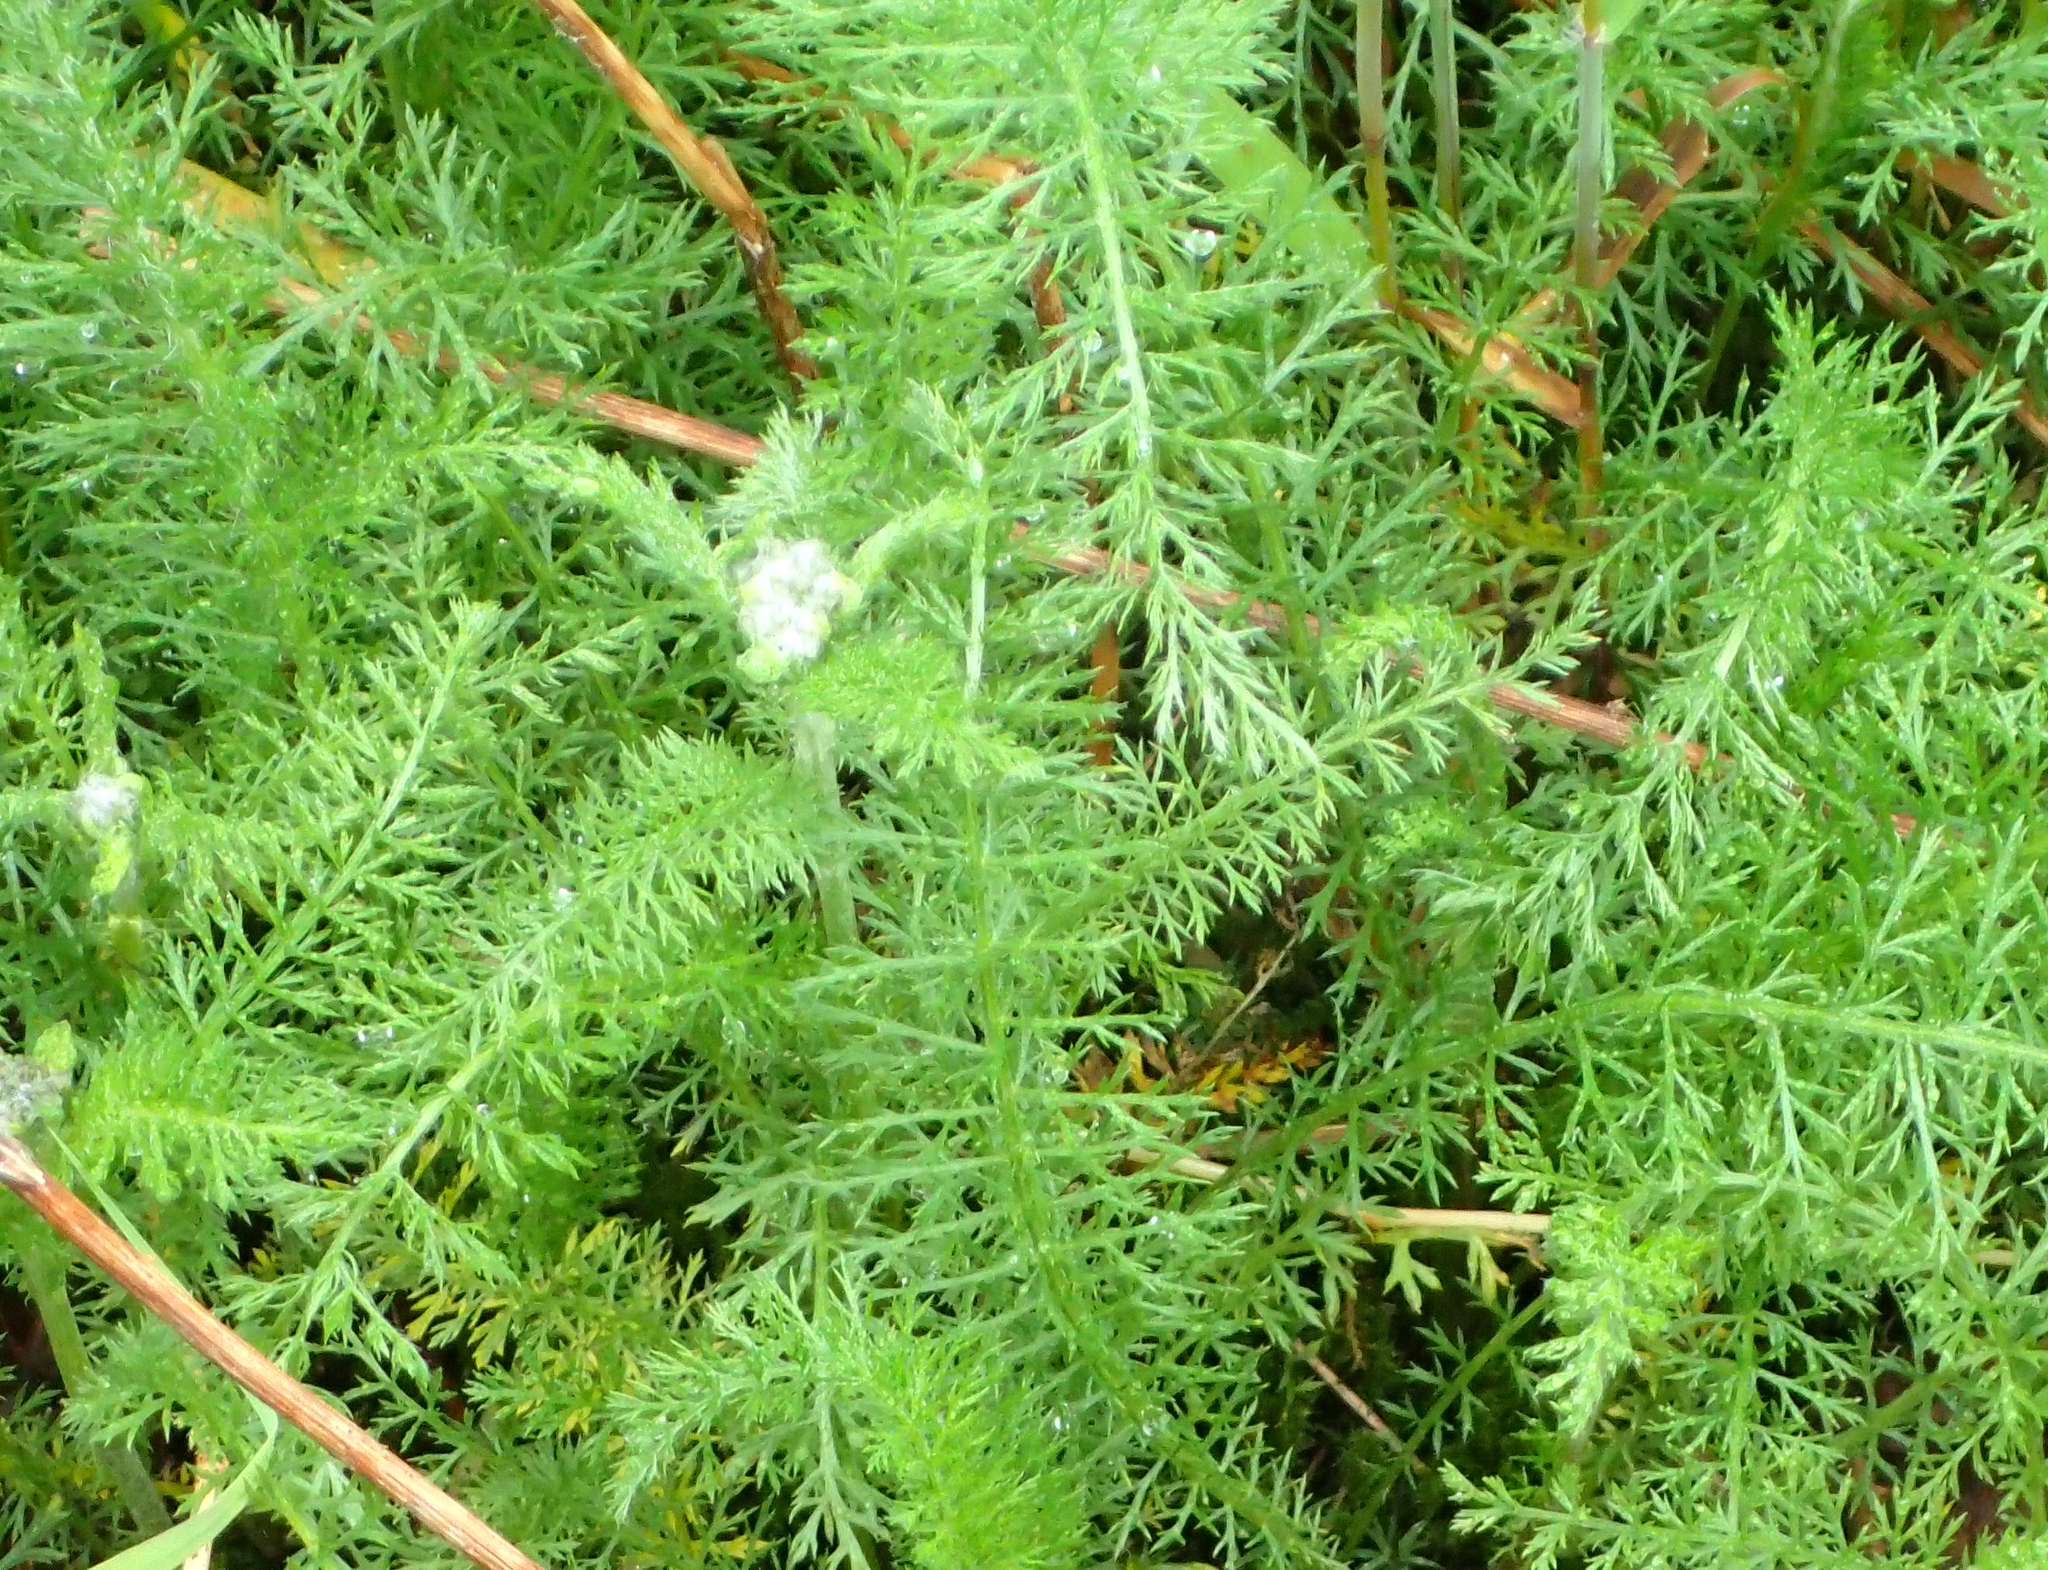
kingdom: Plantae
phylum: Tracheophyta
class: Magnoliopsida
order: Asterales
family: Asteraceae
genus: Achillea
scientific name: Achillea millefolium
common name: Yarrow
